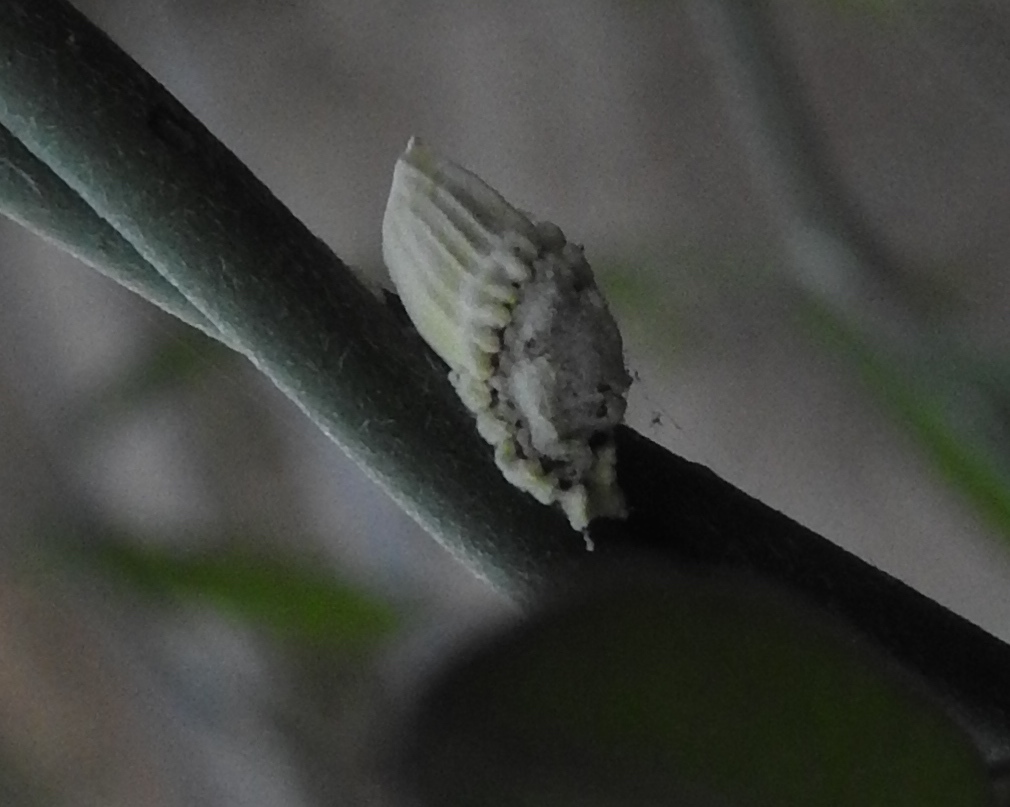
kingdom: Animalia
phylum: Arthropoda
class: Insecta
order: Hemiptera
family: Margarodidae
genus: Icerya
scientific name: Icerya purchasi
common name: Cottony cushion scale
